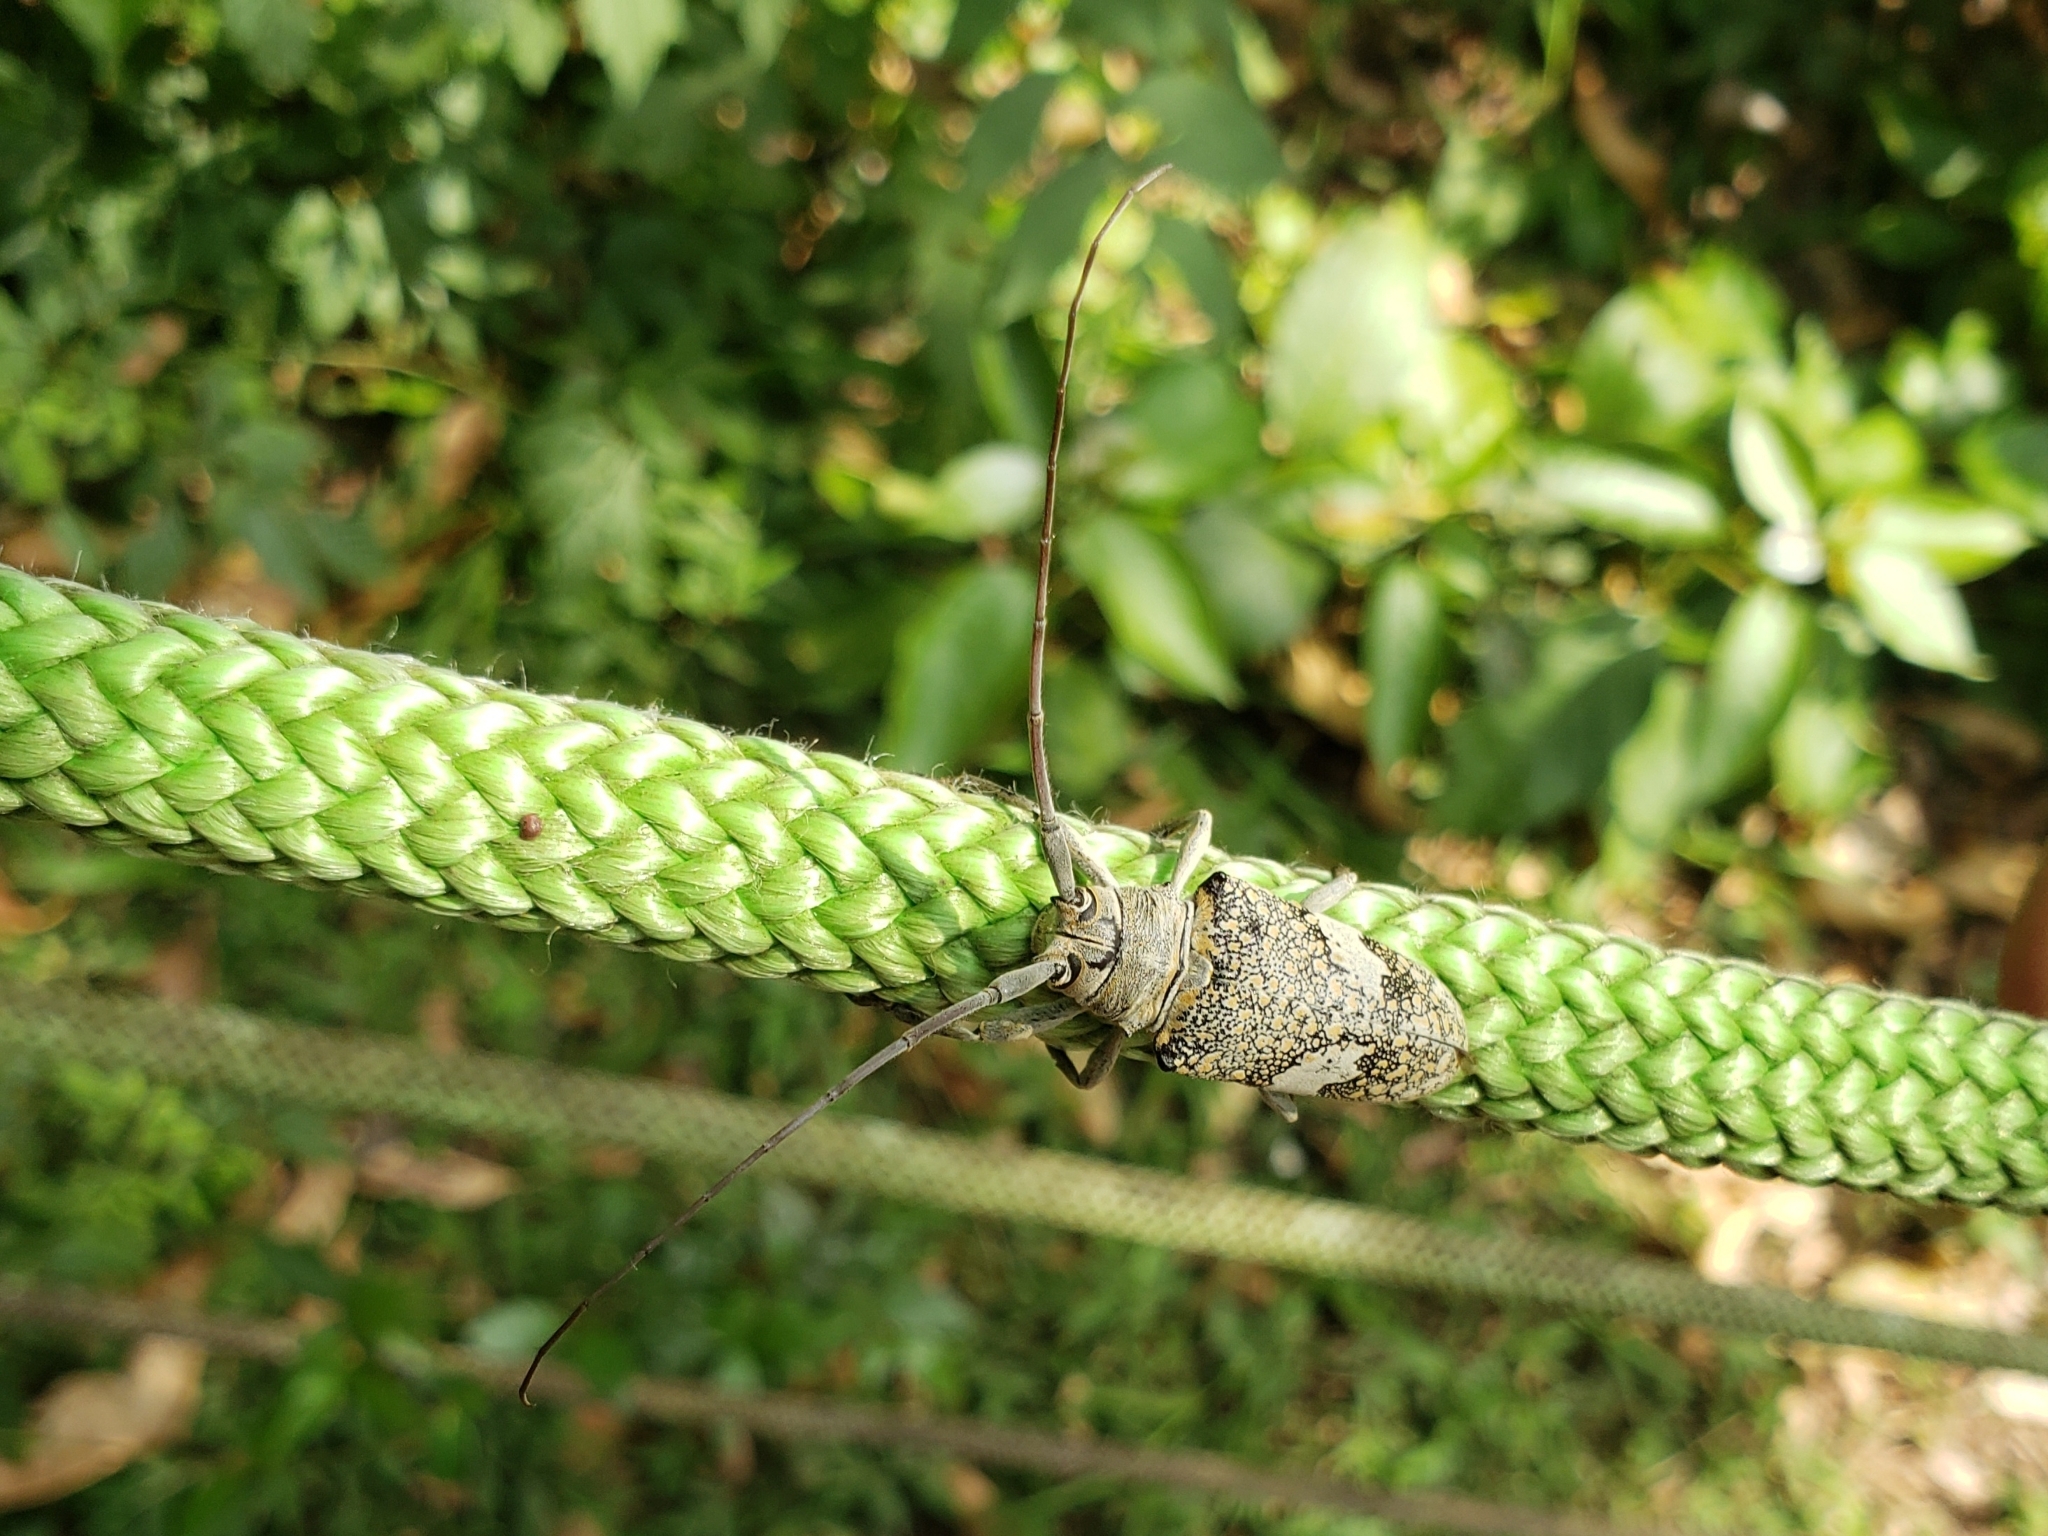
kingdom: Animalia
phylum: Arthropoda
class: Insecta
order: Coleoptera
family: Cerambycidae
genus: Lochmaeocles
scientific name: Lochmaeocles fasciatus
